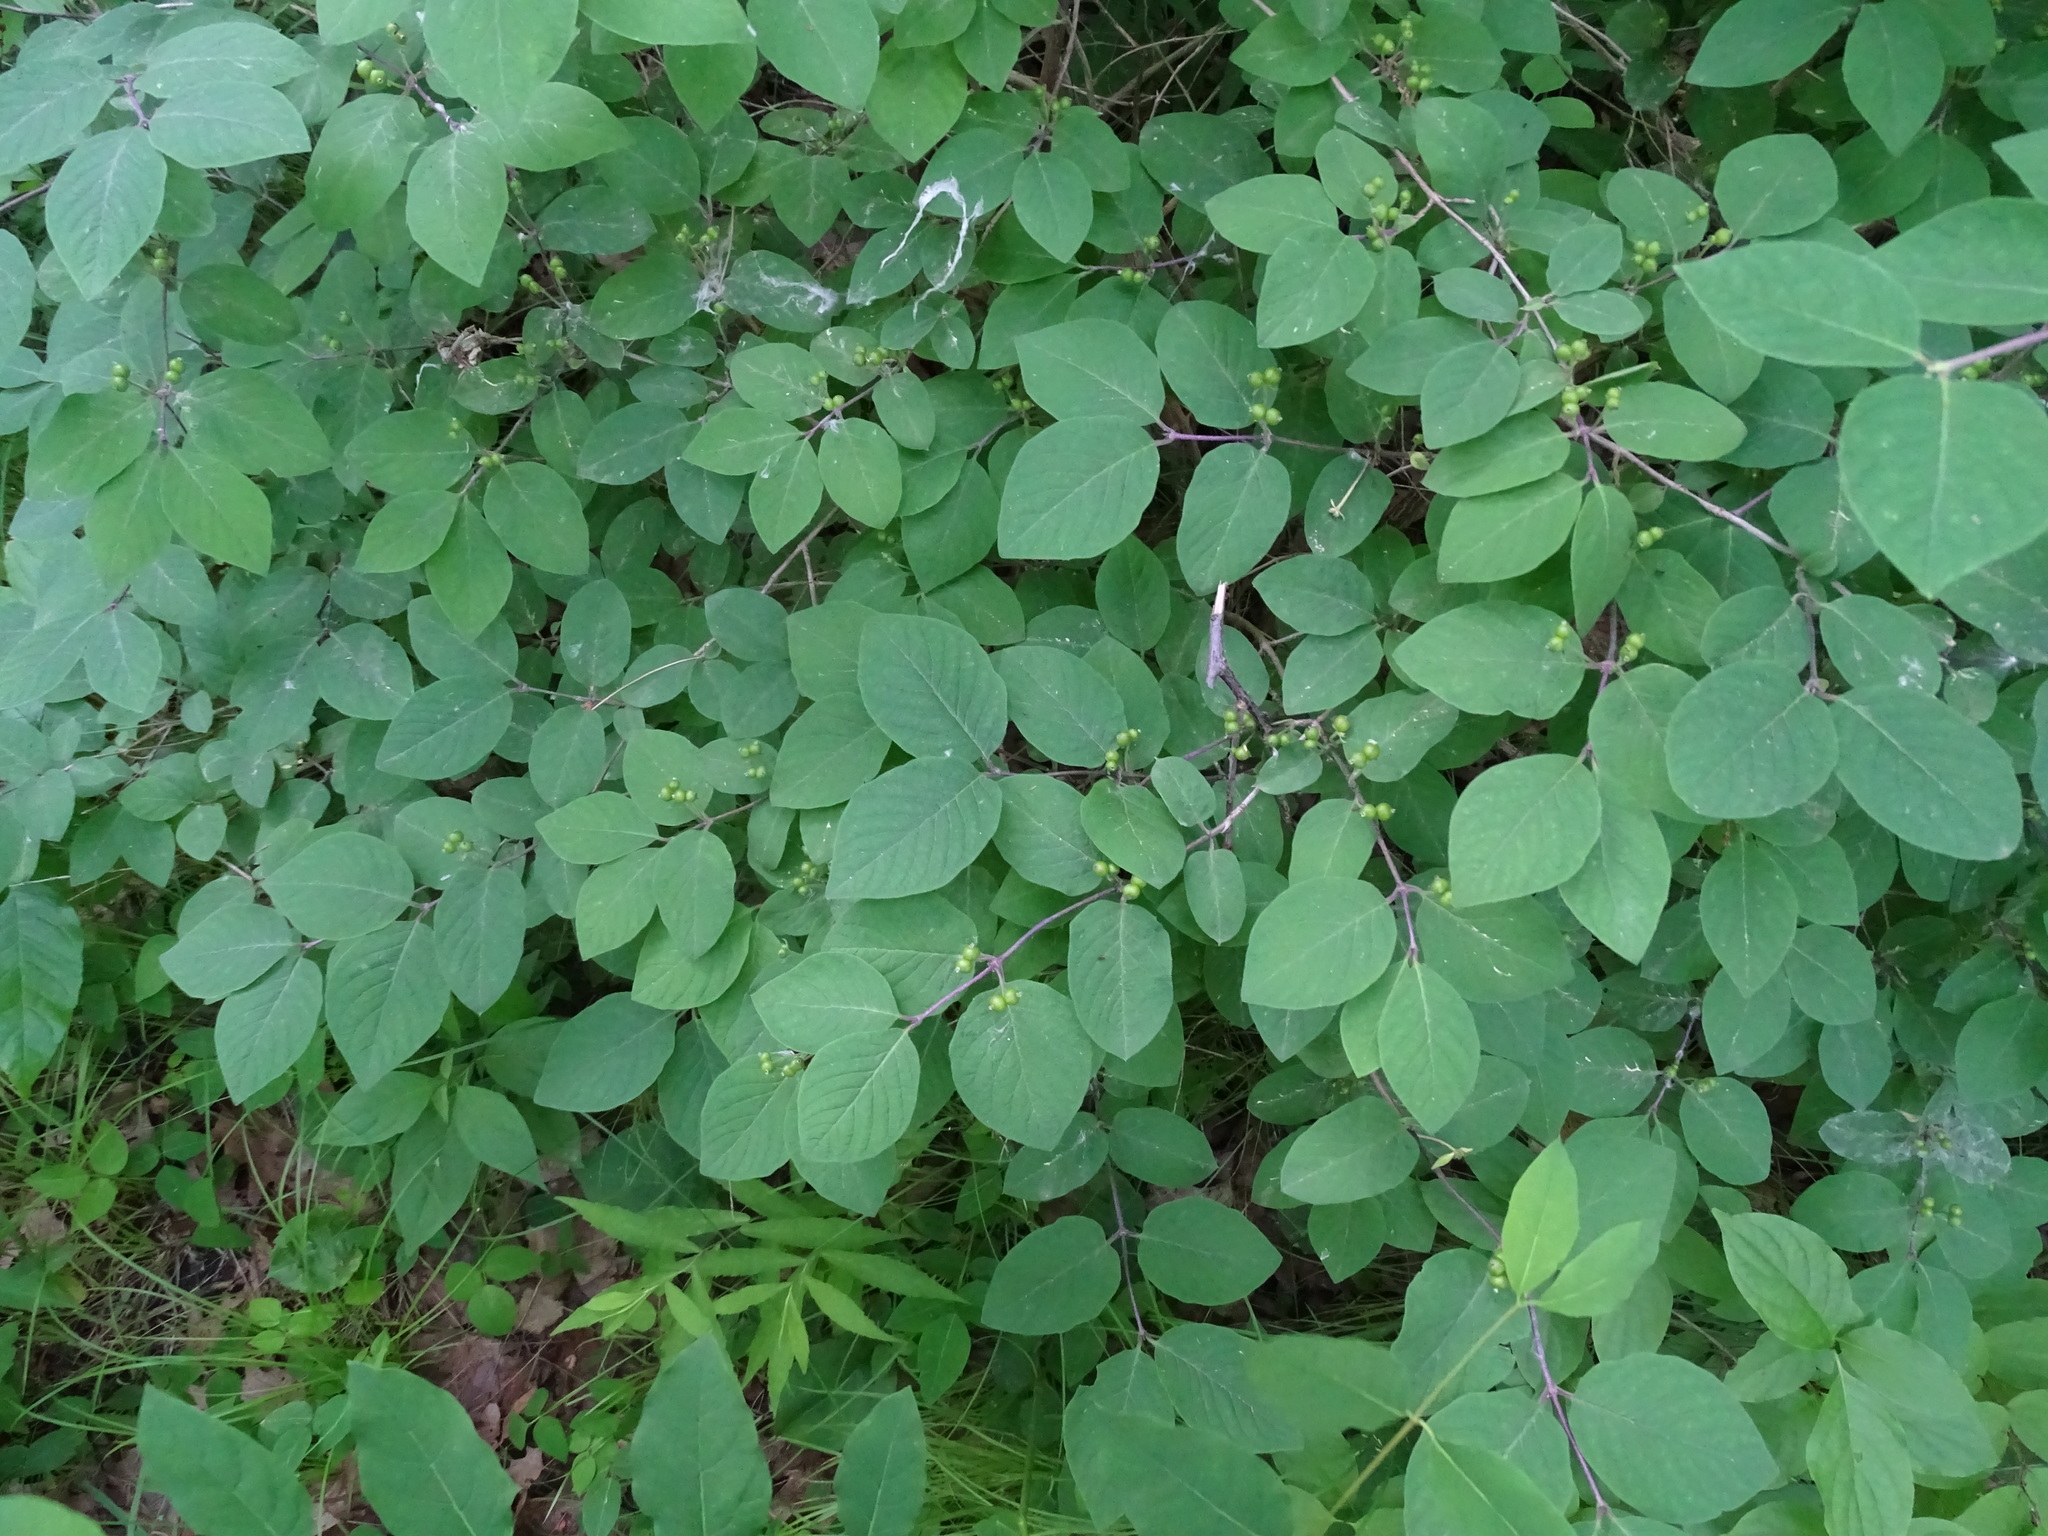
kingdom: Plantae
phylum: Tracheophyta
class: Magnoliopsida
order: Dipsacales
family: Caprifoliaceae
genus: Lonicera
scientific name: Lonicera xylosteum
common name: Fly honeysuckle
